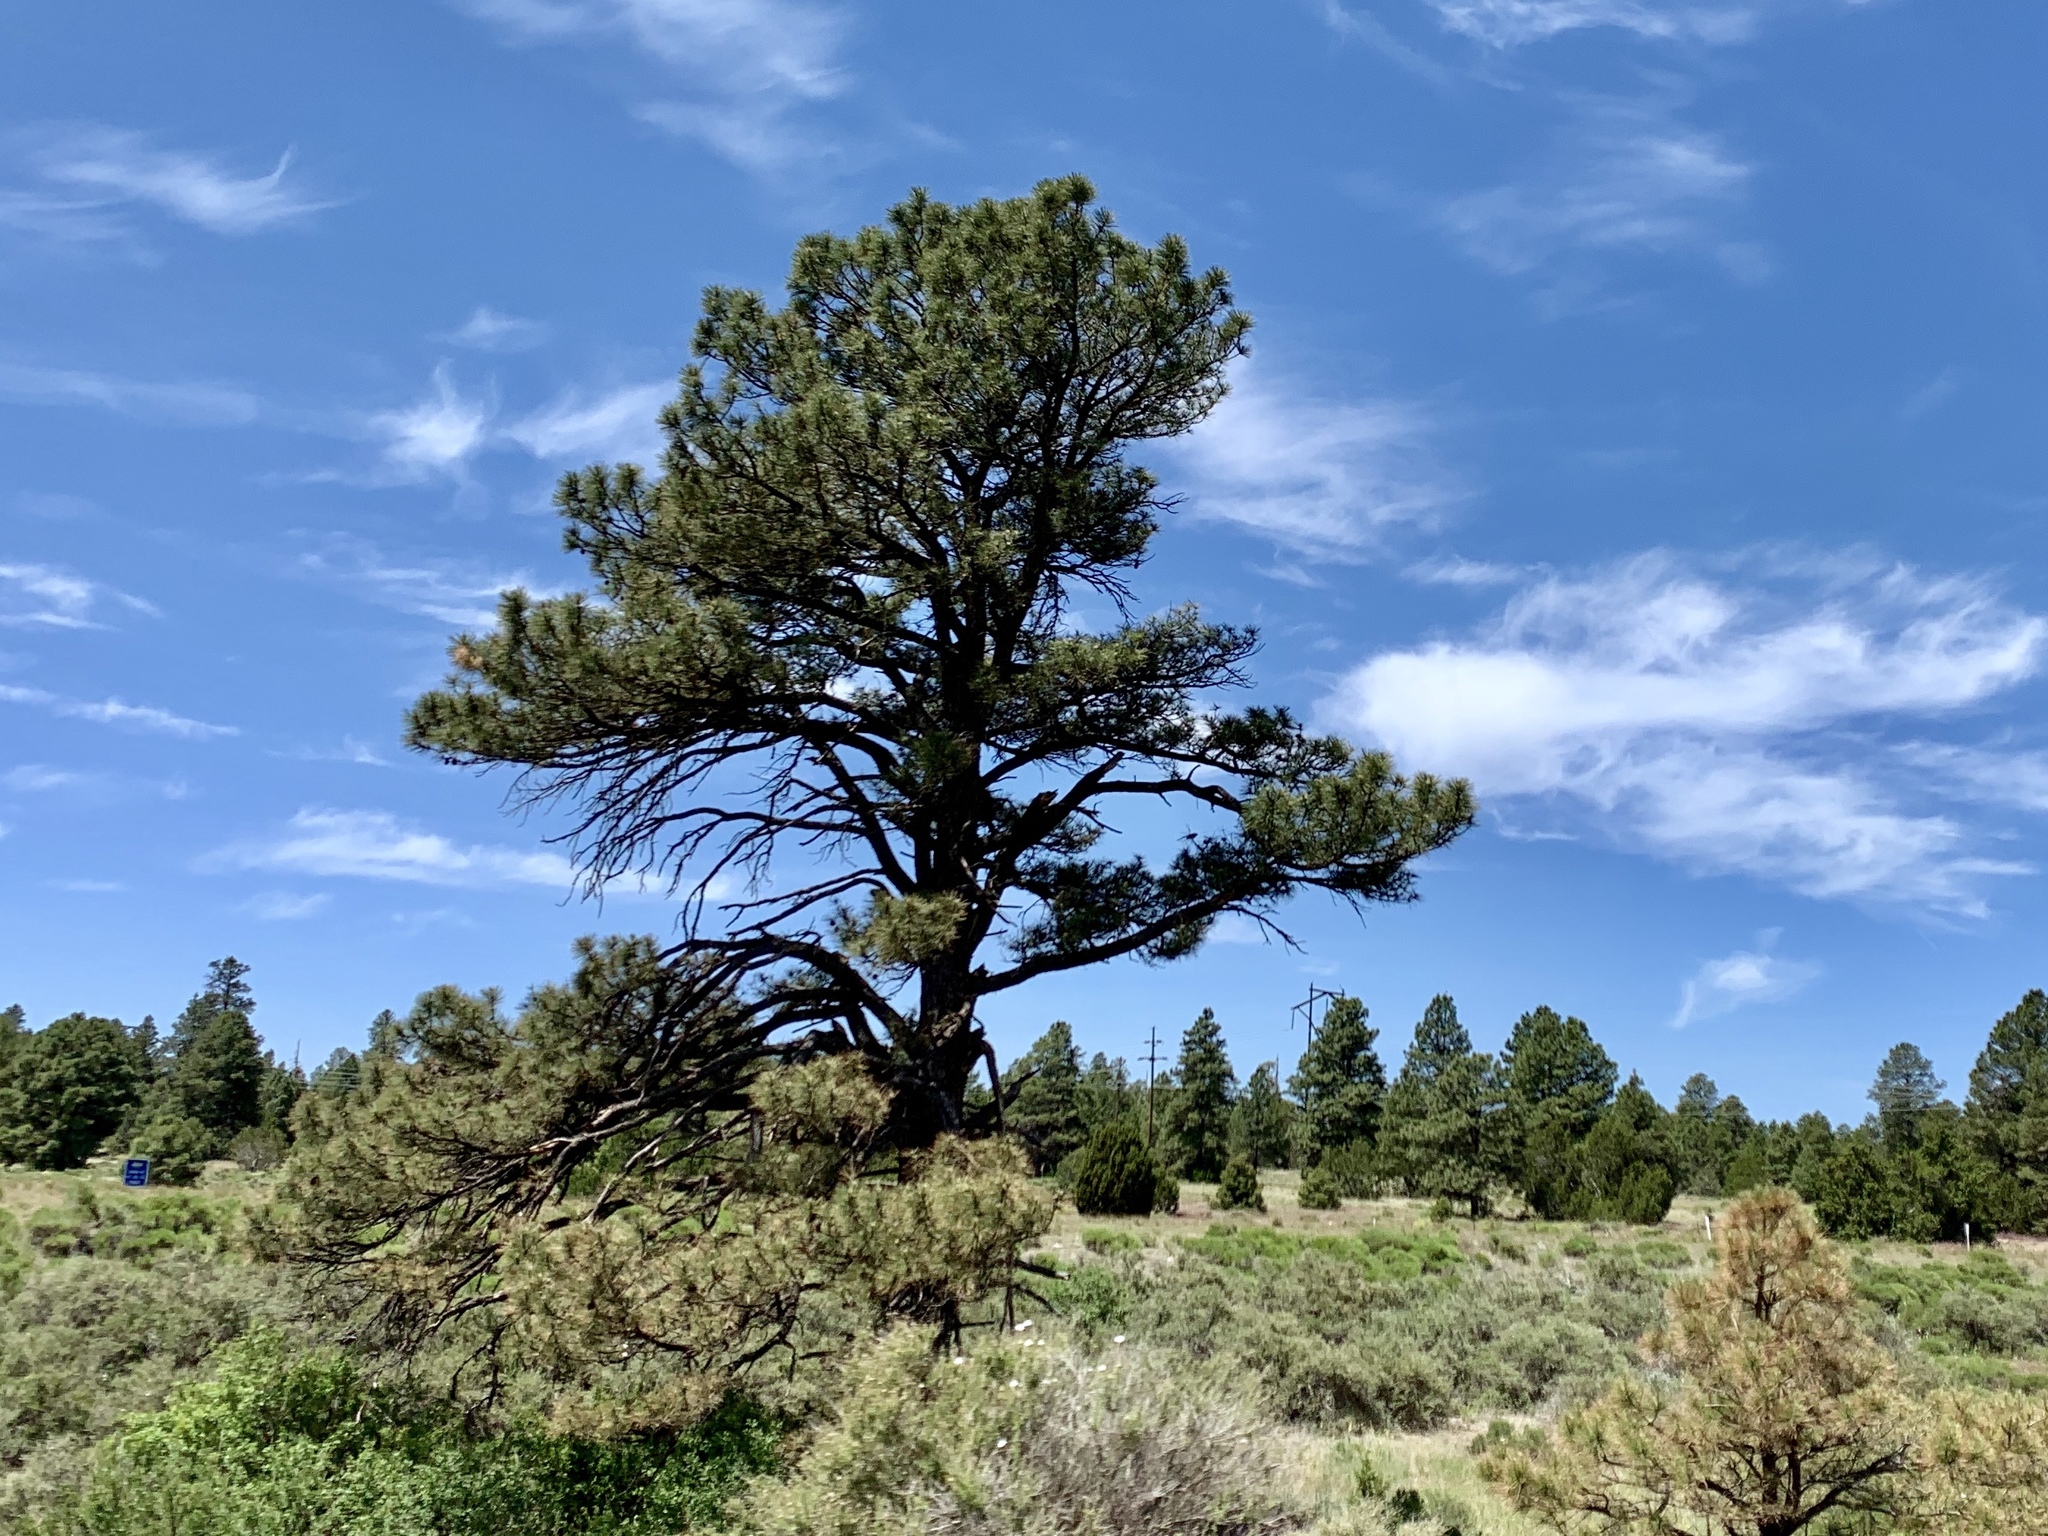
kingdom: Plantae
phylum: Tracheophyta
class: Pinopsida
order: Pinales
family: Pinaceae
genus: Pinus
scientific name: Pinus ponderosa
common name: Western yellow-pine
